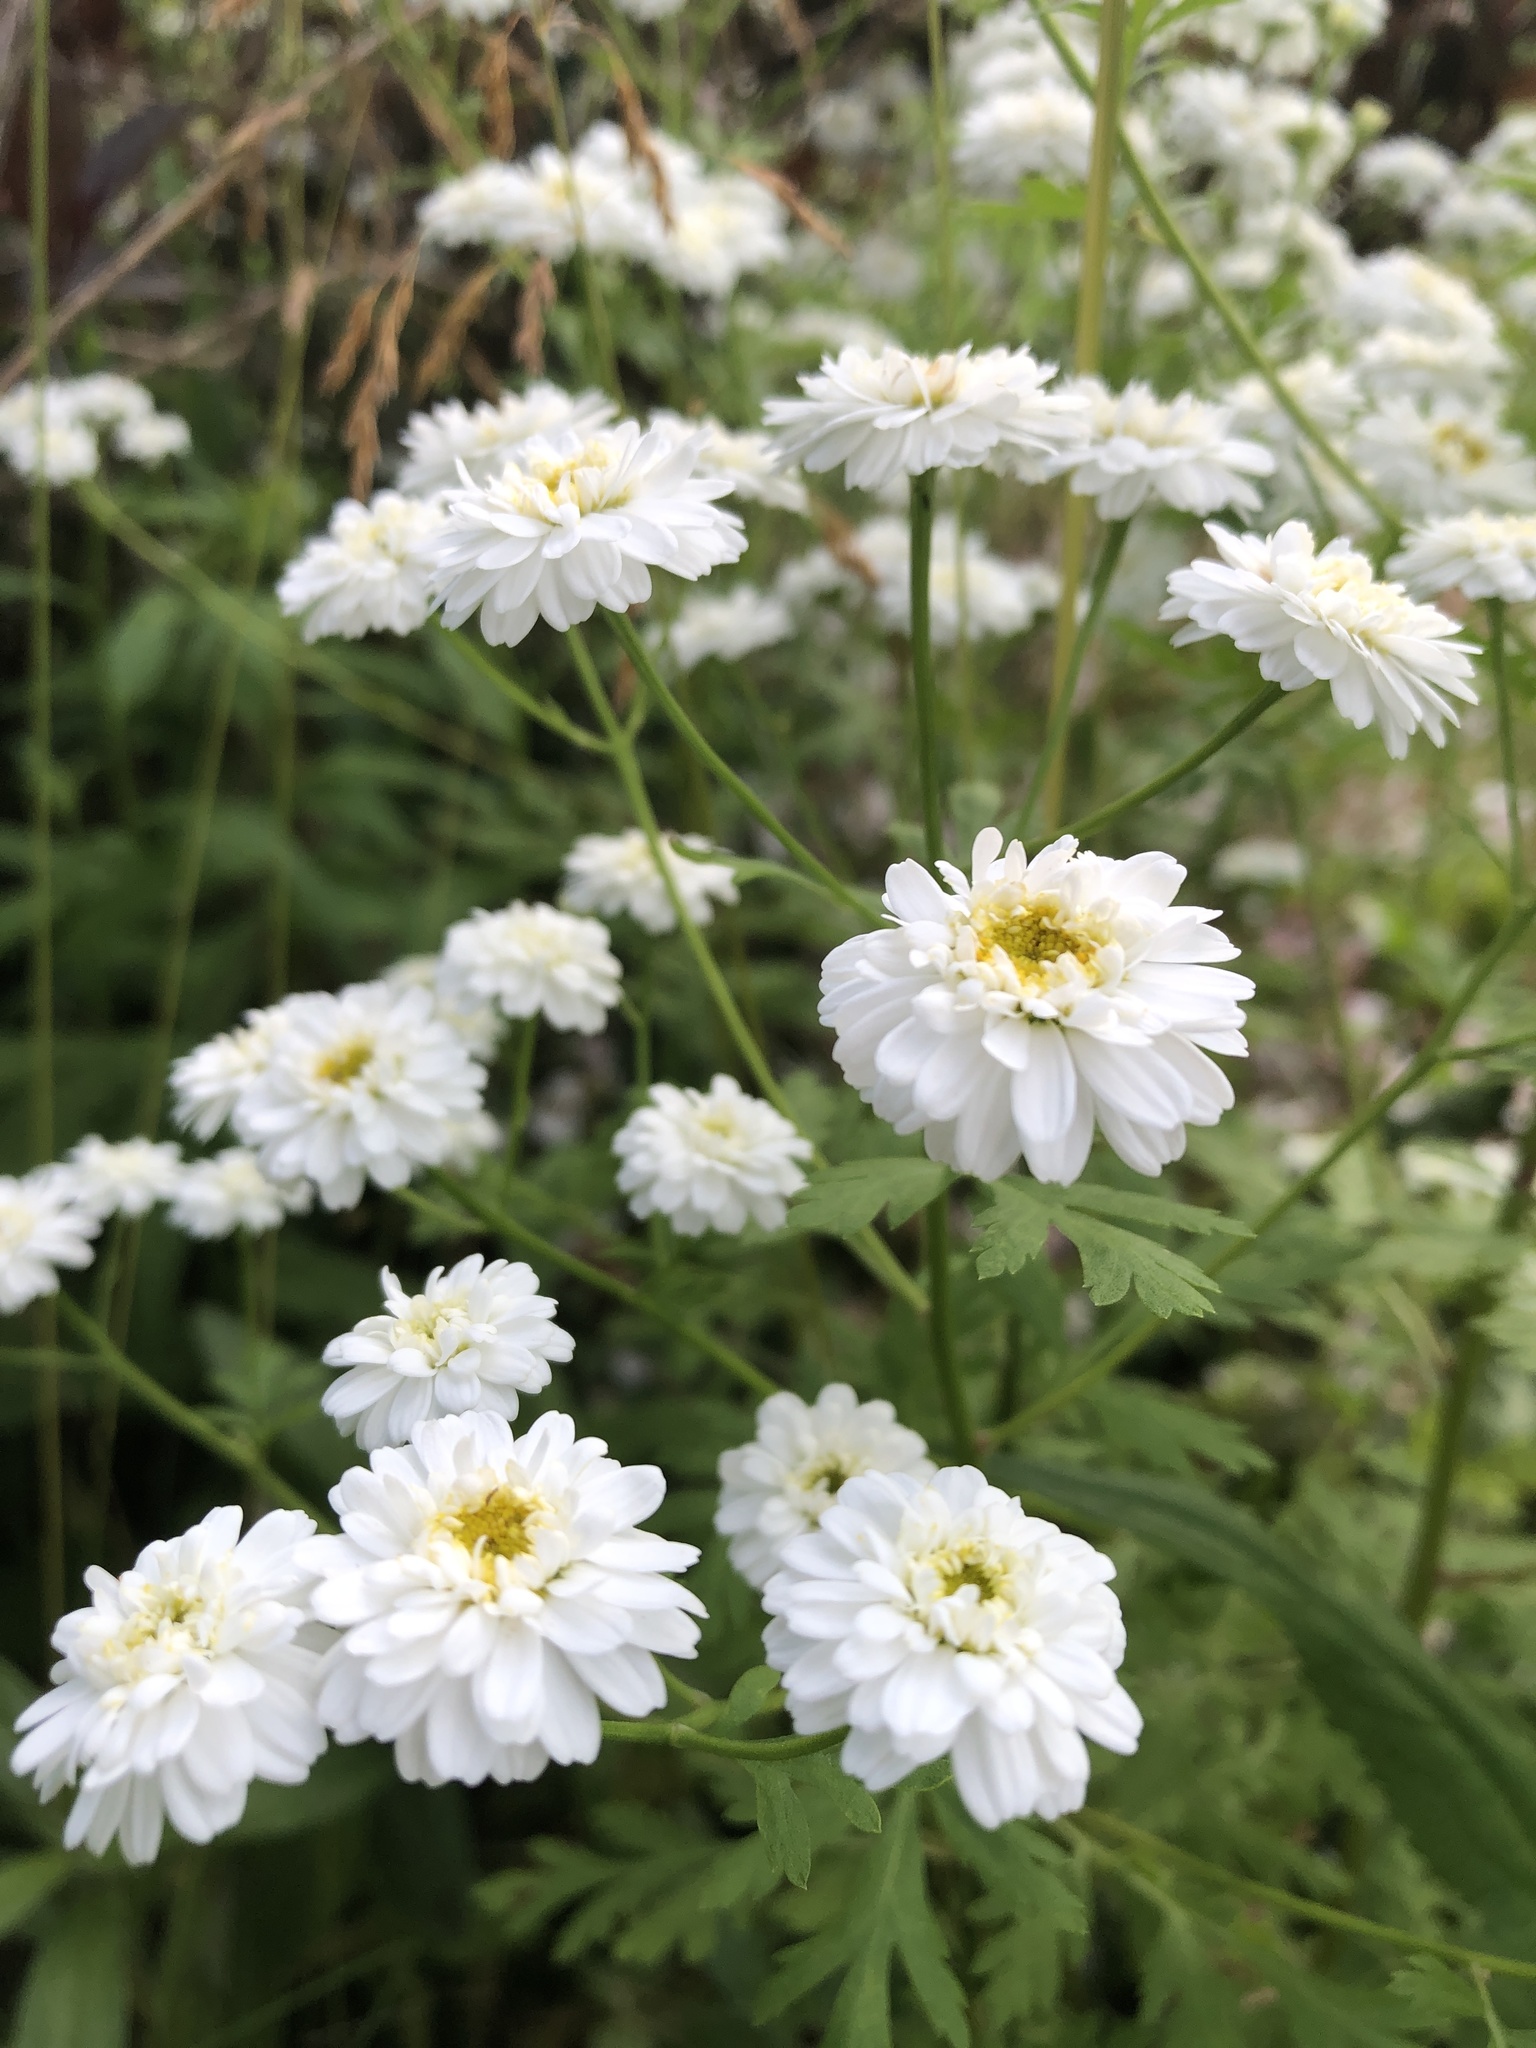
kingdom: Plantae
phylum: Tracheophyta
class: Magnoliopsida
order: Asterales
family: Asteraceae
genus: Tanacetum
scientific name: Tanacetum parthenium
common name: Feverfew
